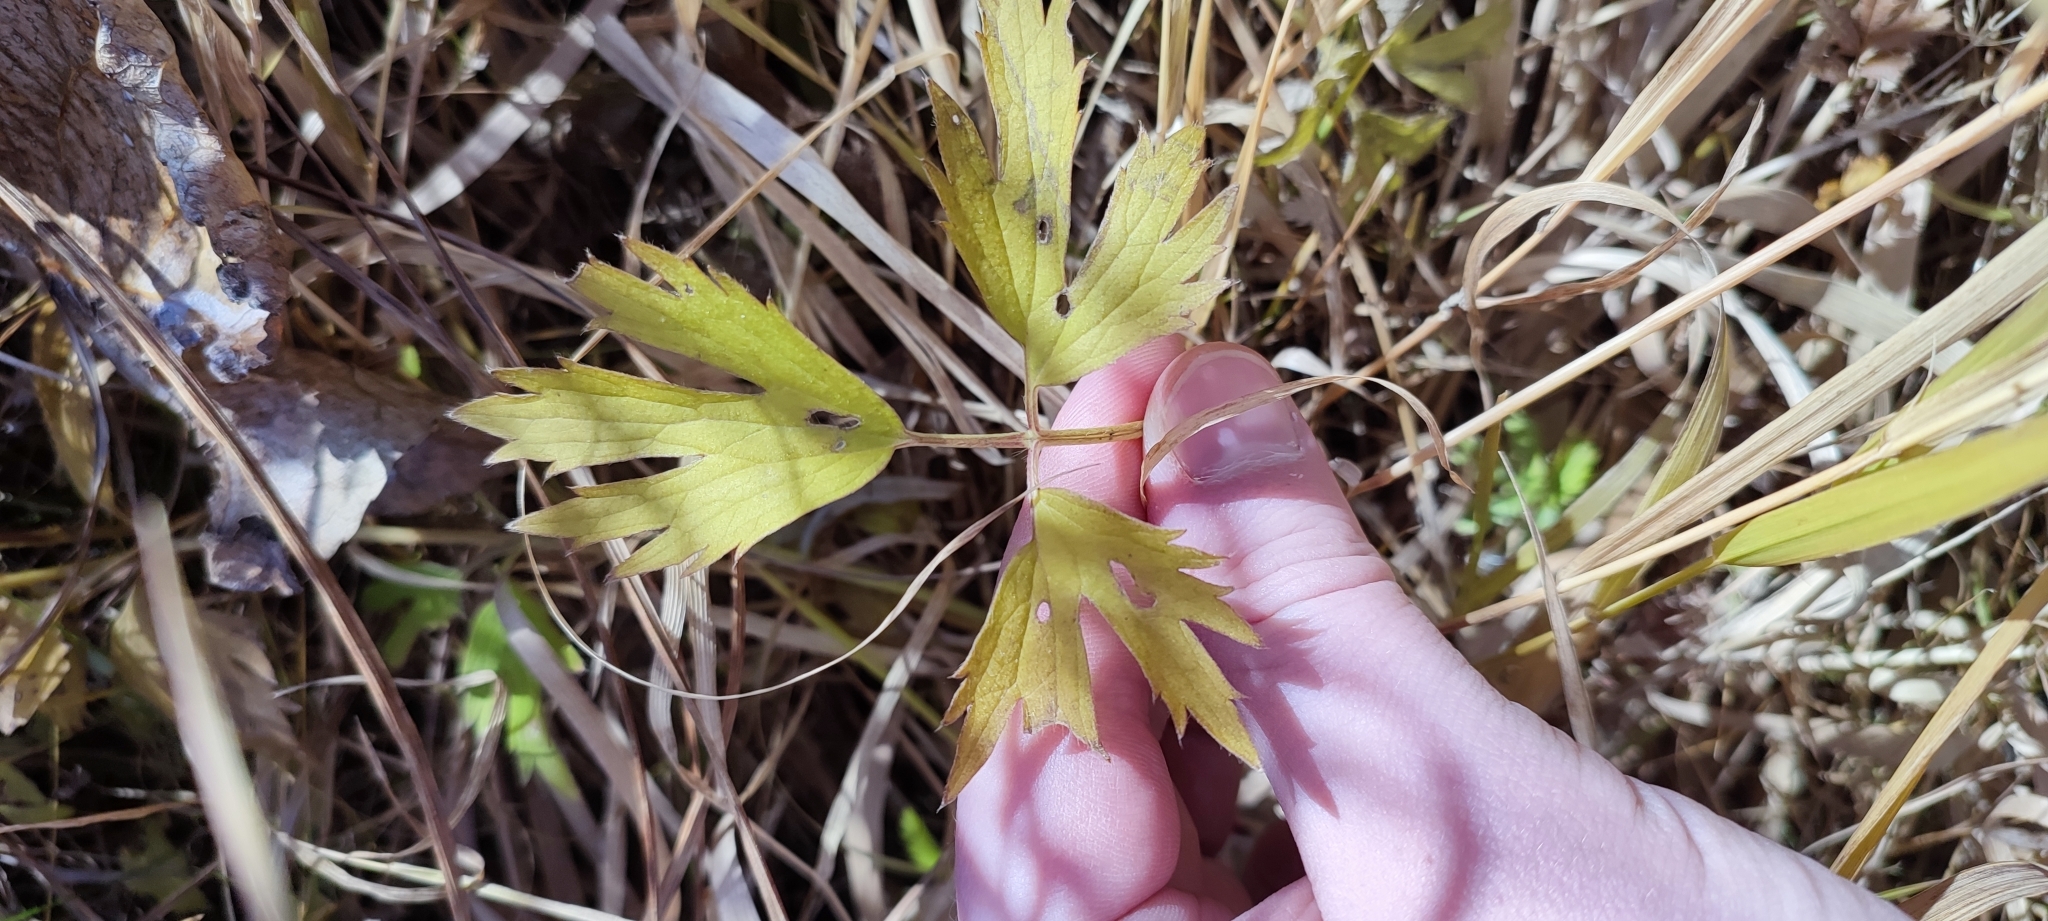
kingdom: Plantae
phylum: Tracheophyta
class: Magnoliopsida
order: Ranunculales
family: Ranunculaceae
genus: Ranunculus
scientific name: Ranunculus repens
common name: Creeping buttercup
